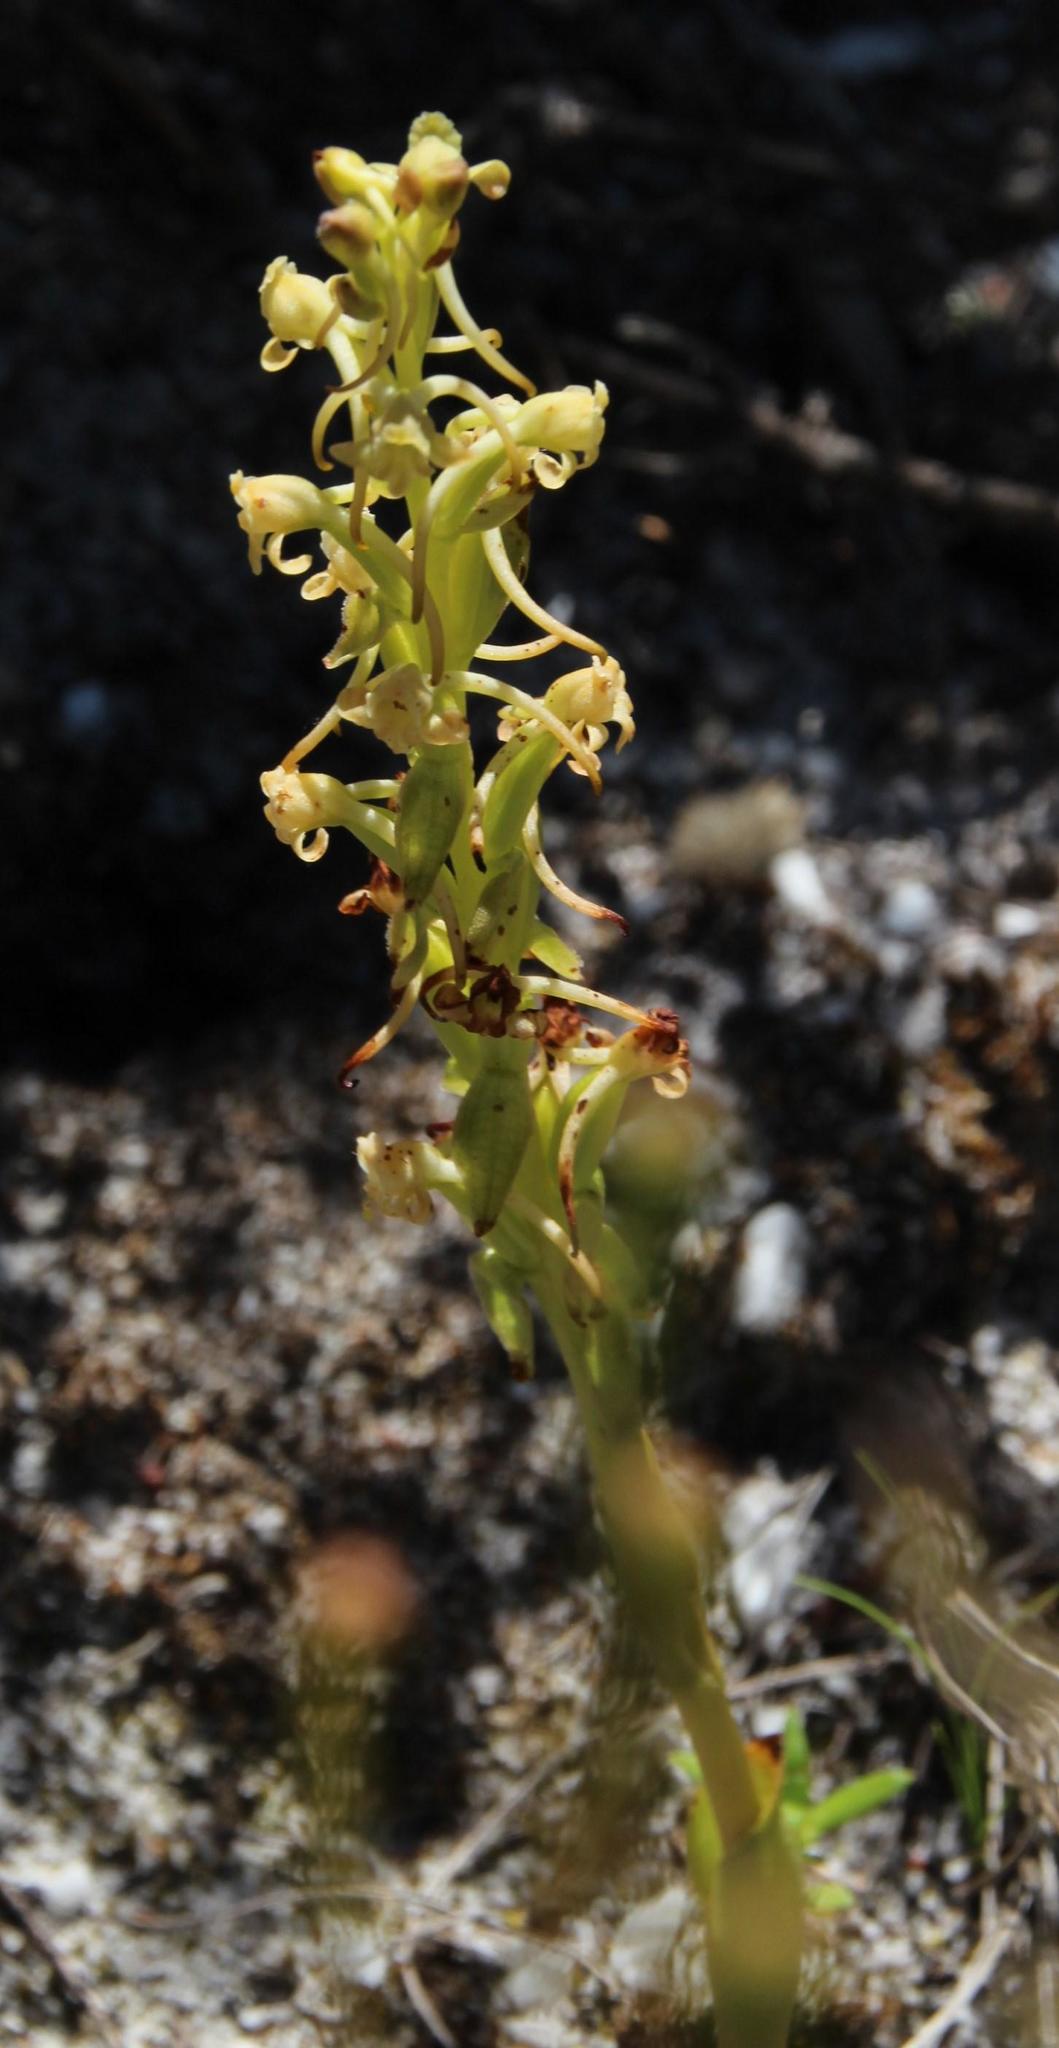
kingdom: Plantae
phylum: Tracheophyta
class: Liliopsida
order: Asparagales
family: Orchidaceae
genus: Satyrium
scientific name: Satyrium humile
